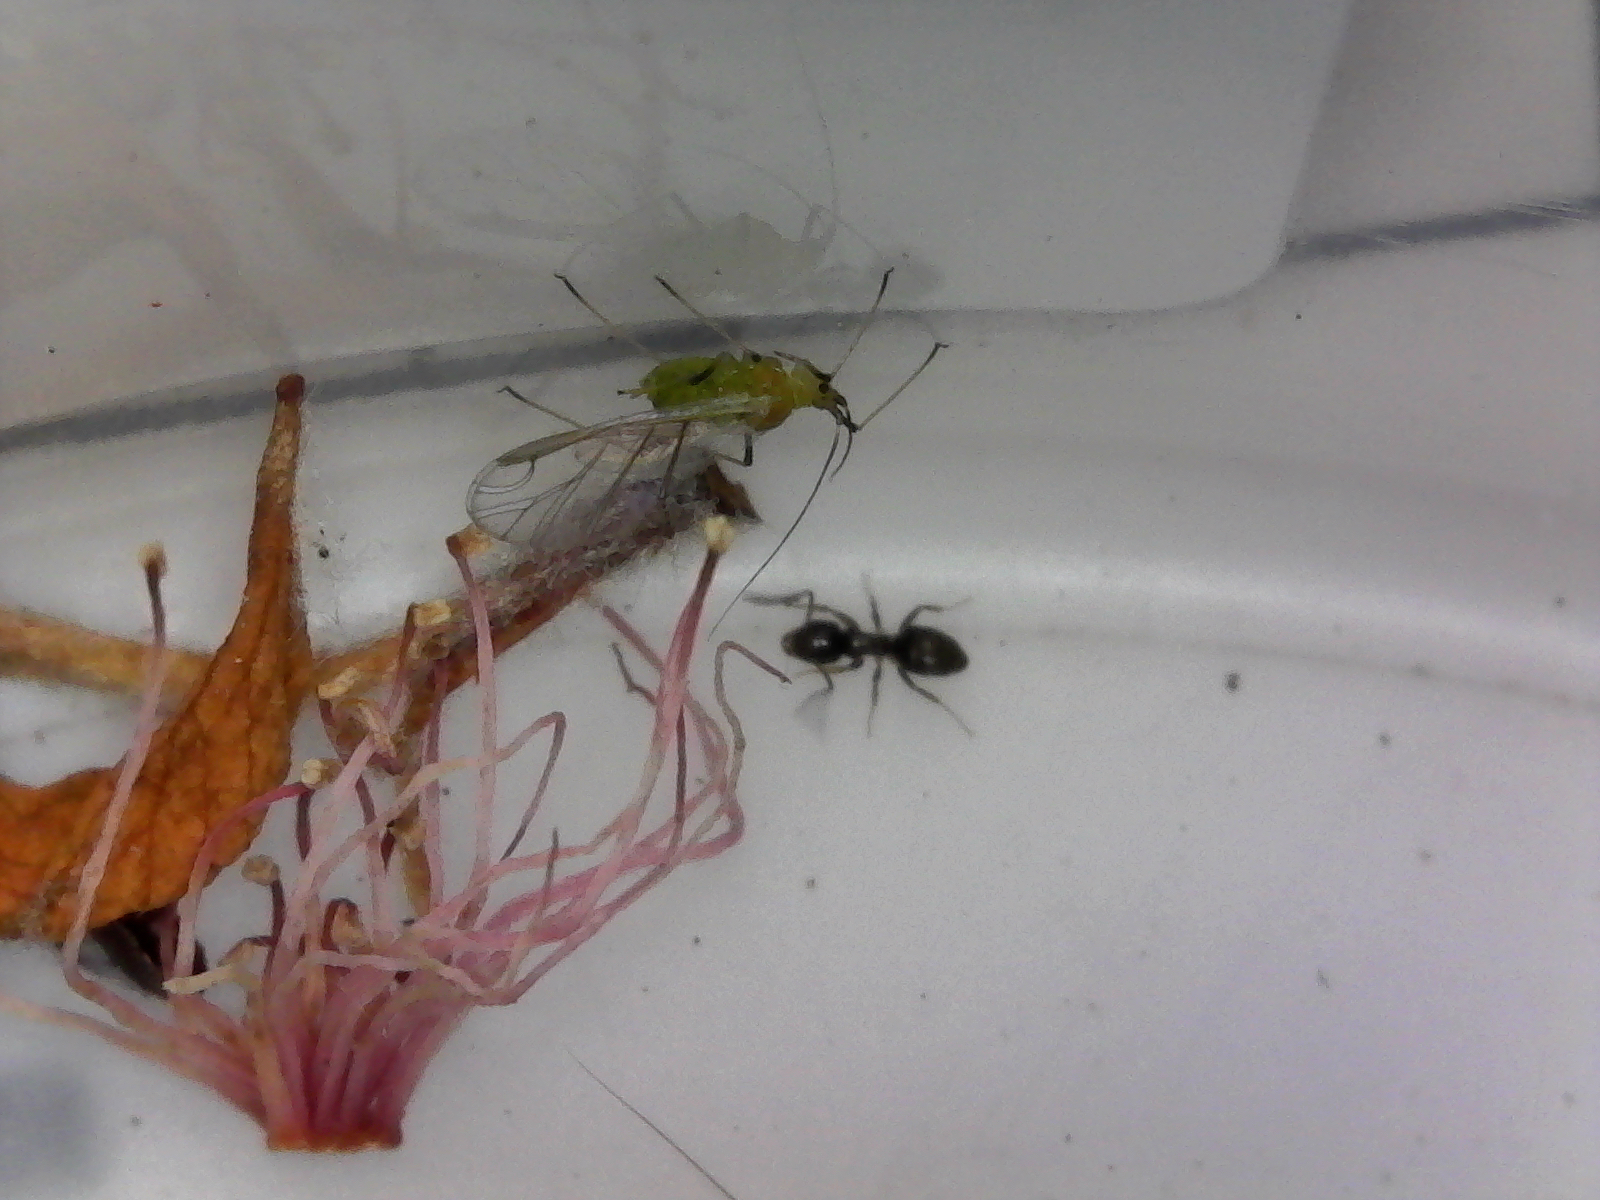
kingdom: Animalia
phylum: Arthropoda
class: Insecta
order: Hymenoptera
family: Formicidae
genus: Tapinoma
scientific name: Tapinoma sessile
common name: Odorous house ant
